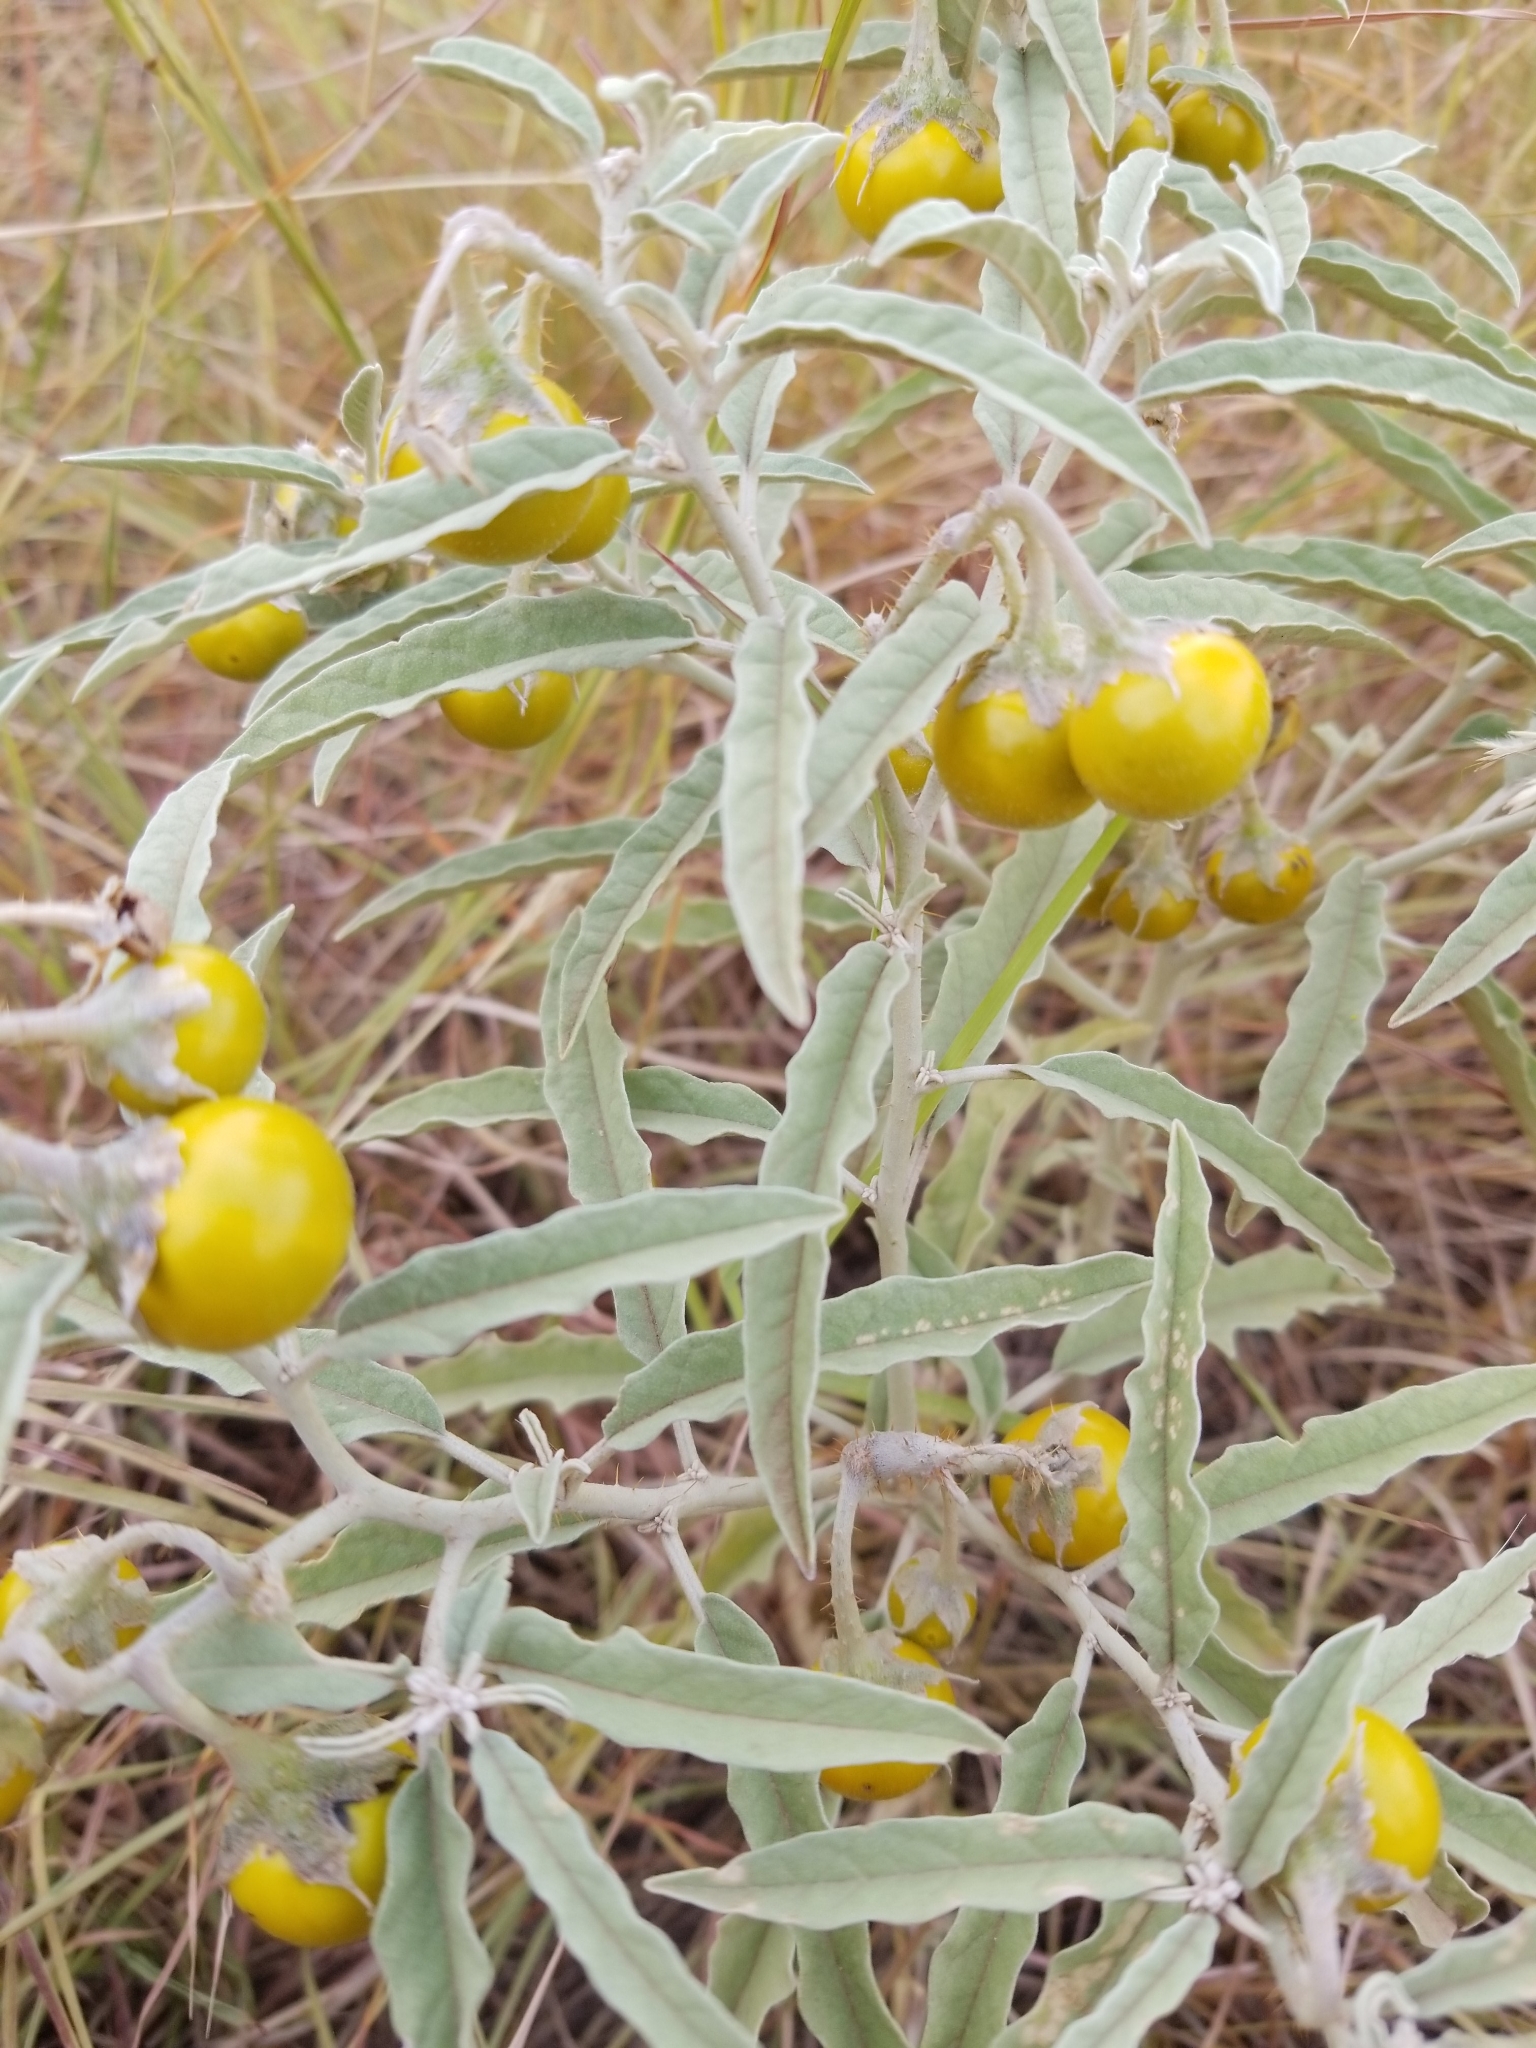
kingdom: Plantae
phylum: Tracheophyta
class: Magnoliopsida
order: Solanales
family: Solanaceae
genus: Solanum
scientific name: Solanum elaeagnifolium
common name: Silverleaf nightshade
